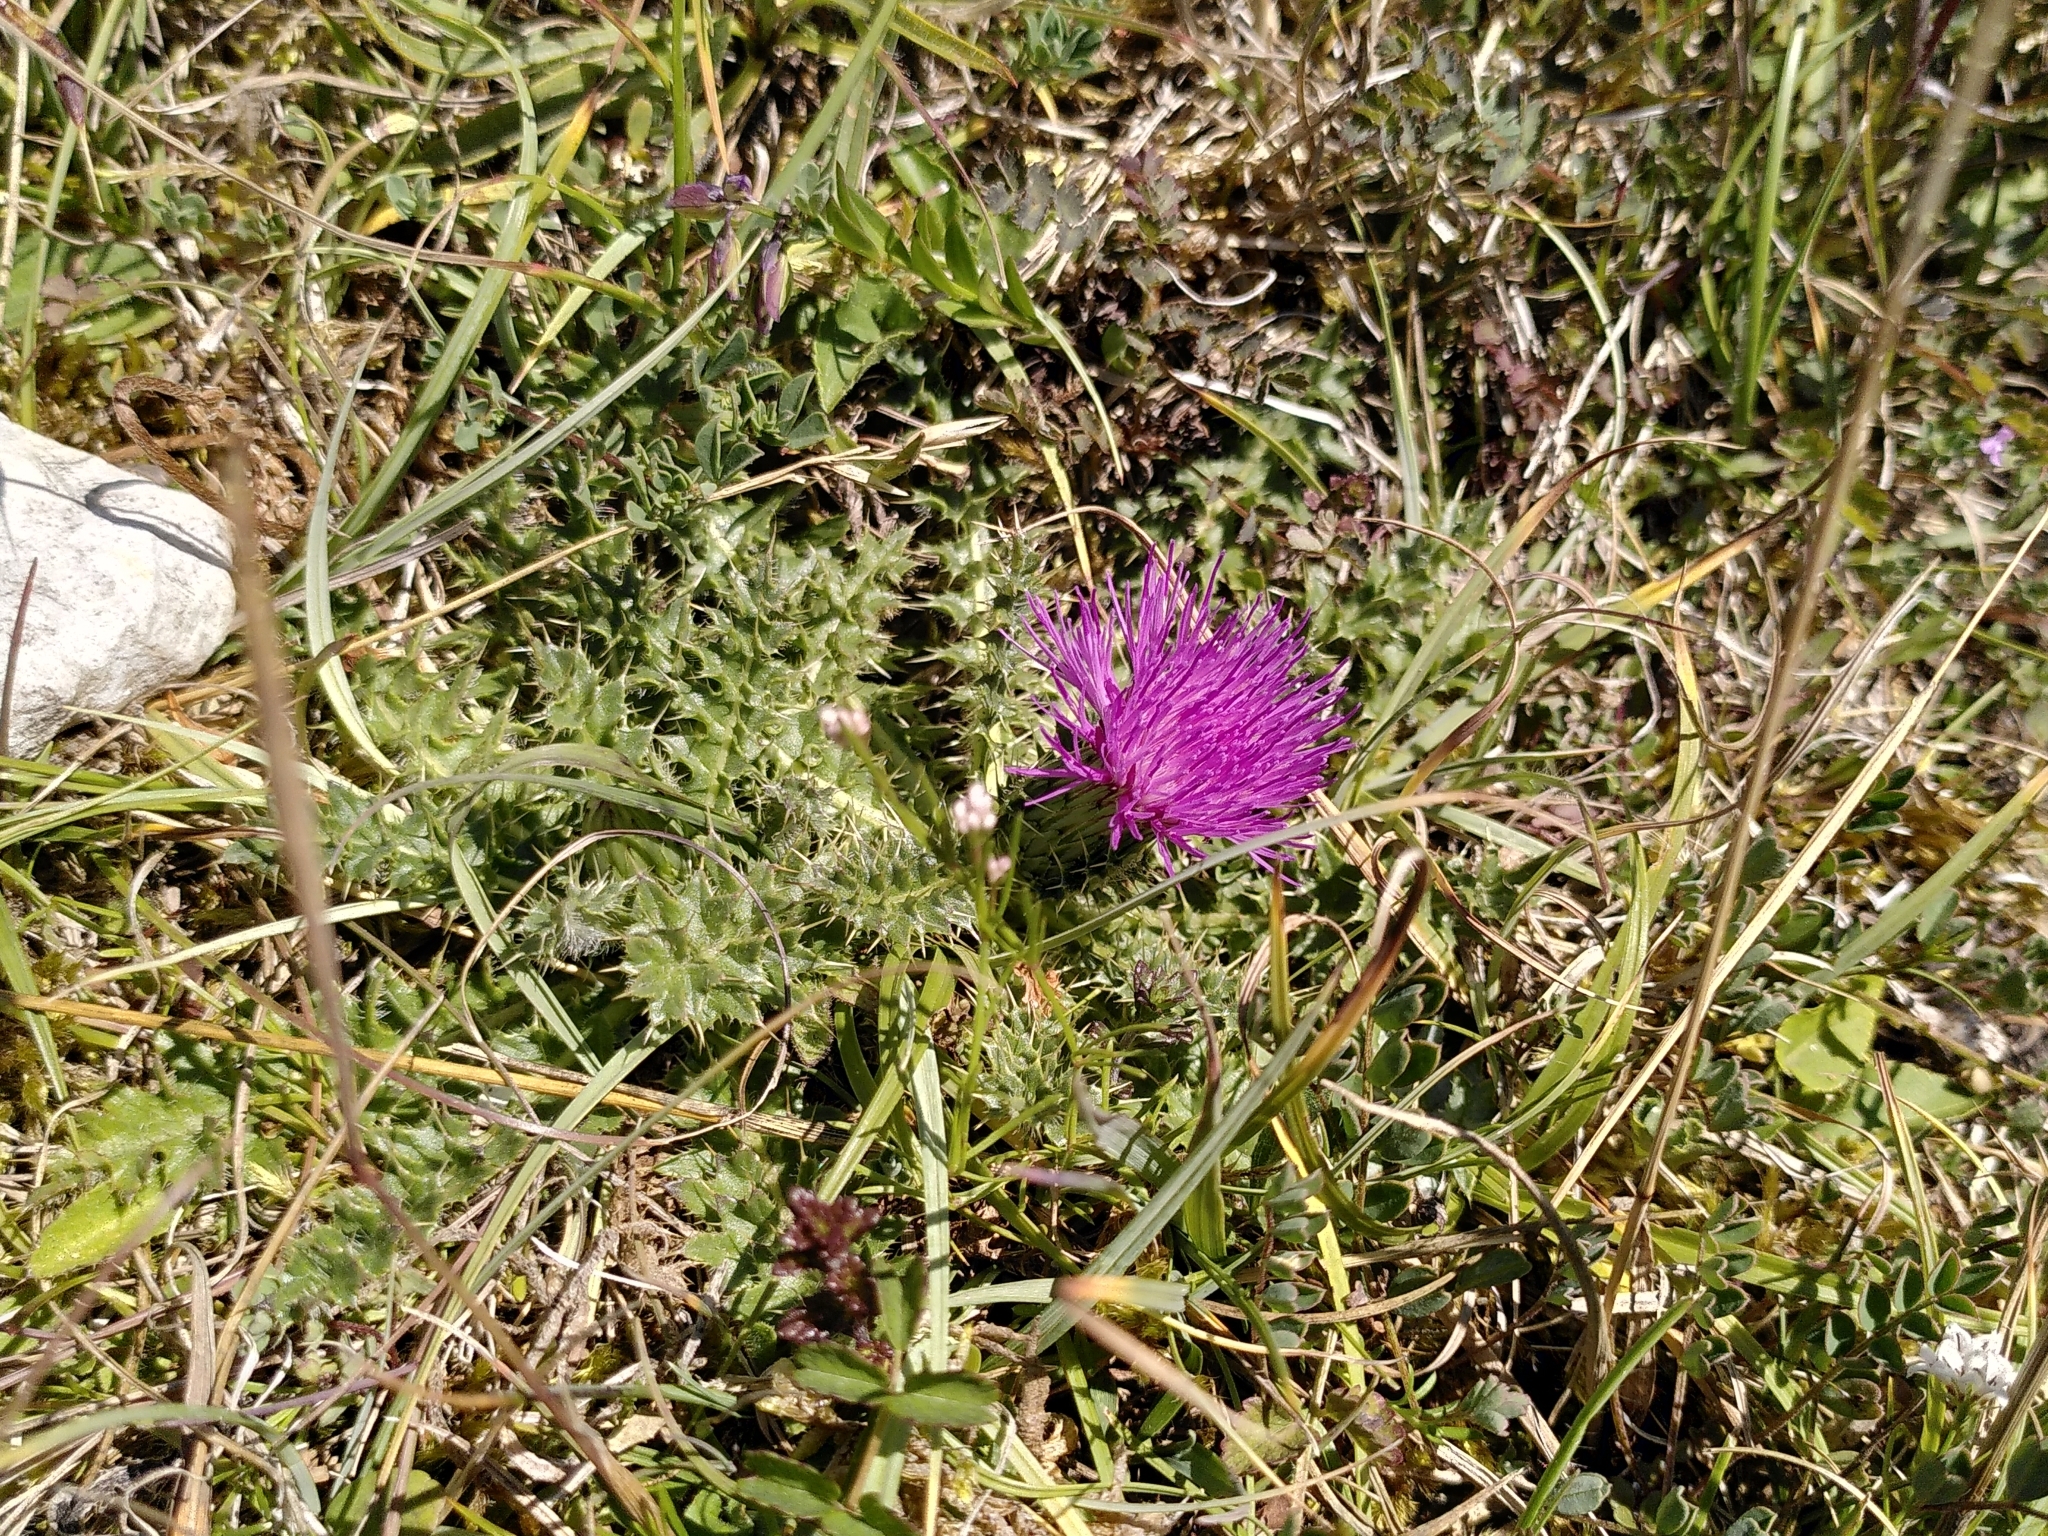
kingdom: Plantae
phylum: Tracheophyta
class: Magnoliopsida
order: Asterales
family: Asteraceae
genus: Cirsium
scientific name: Cirsium acaulon
